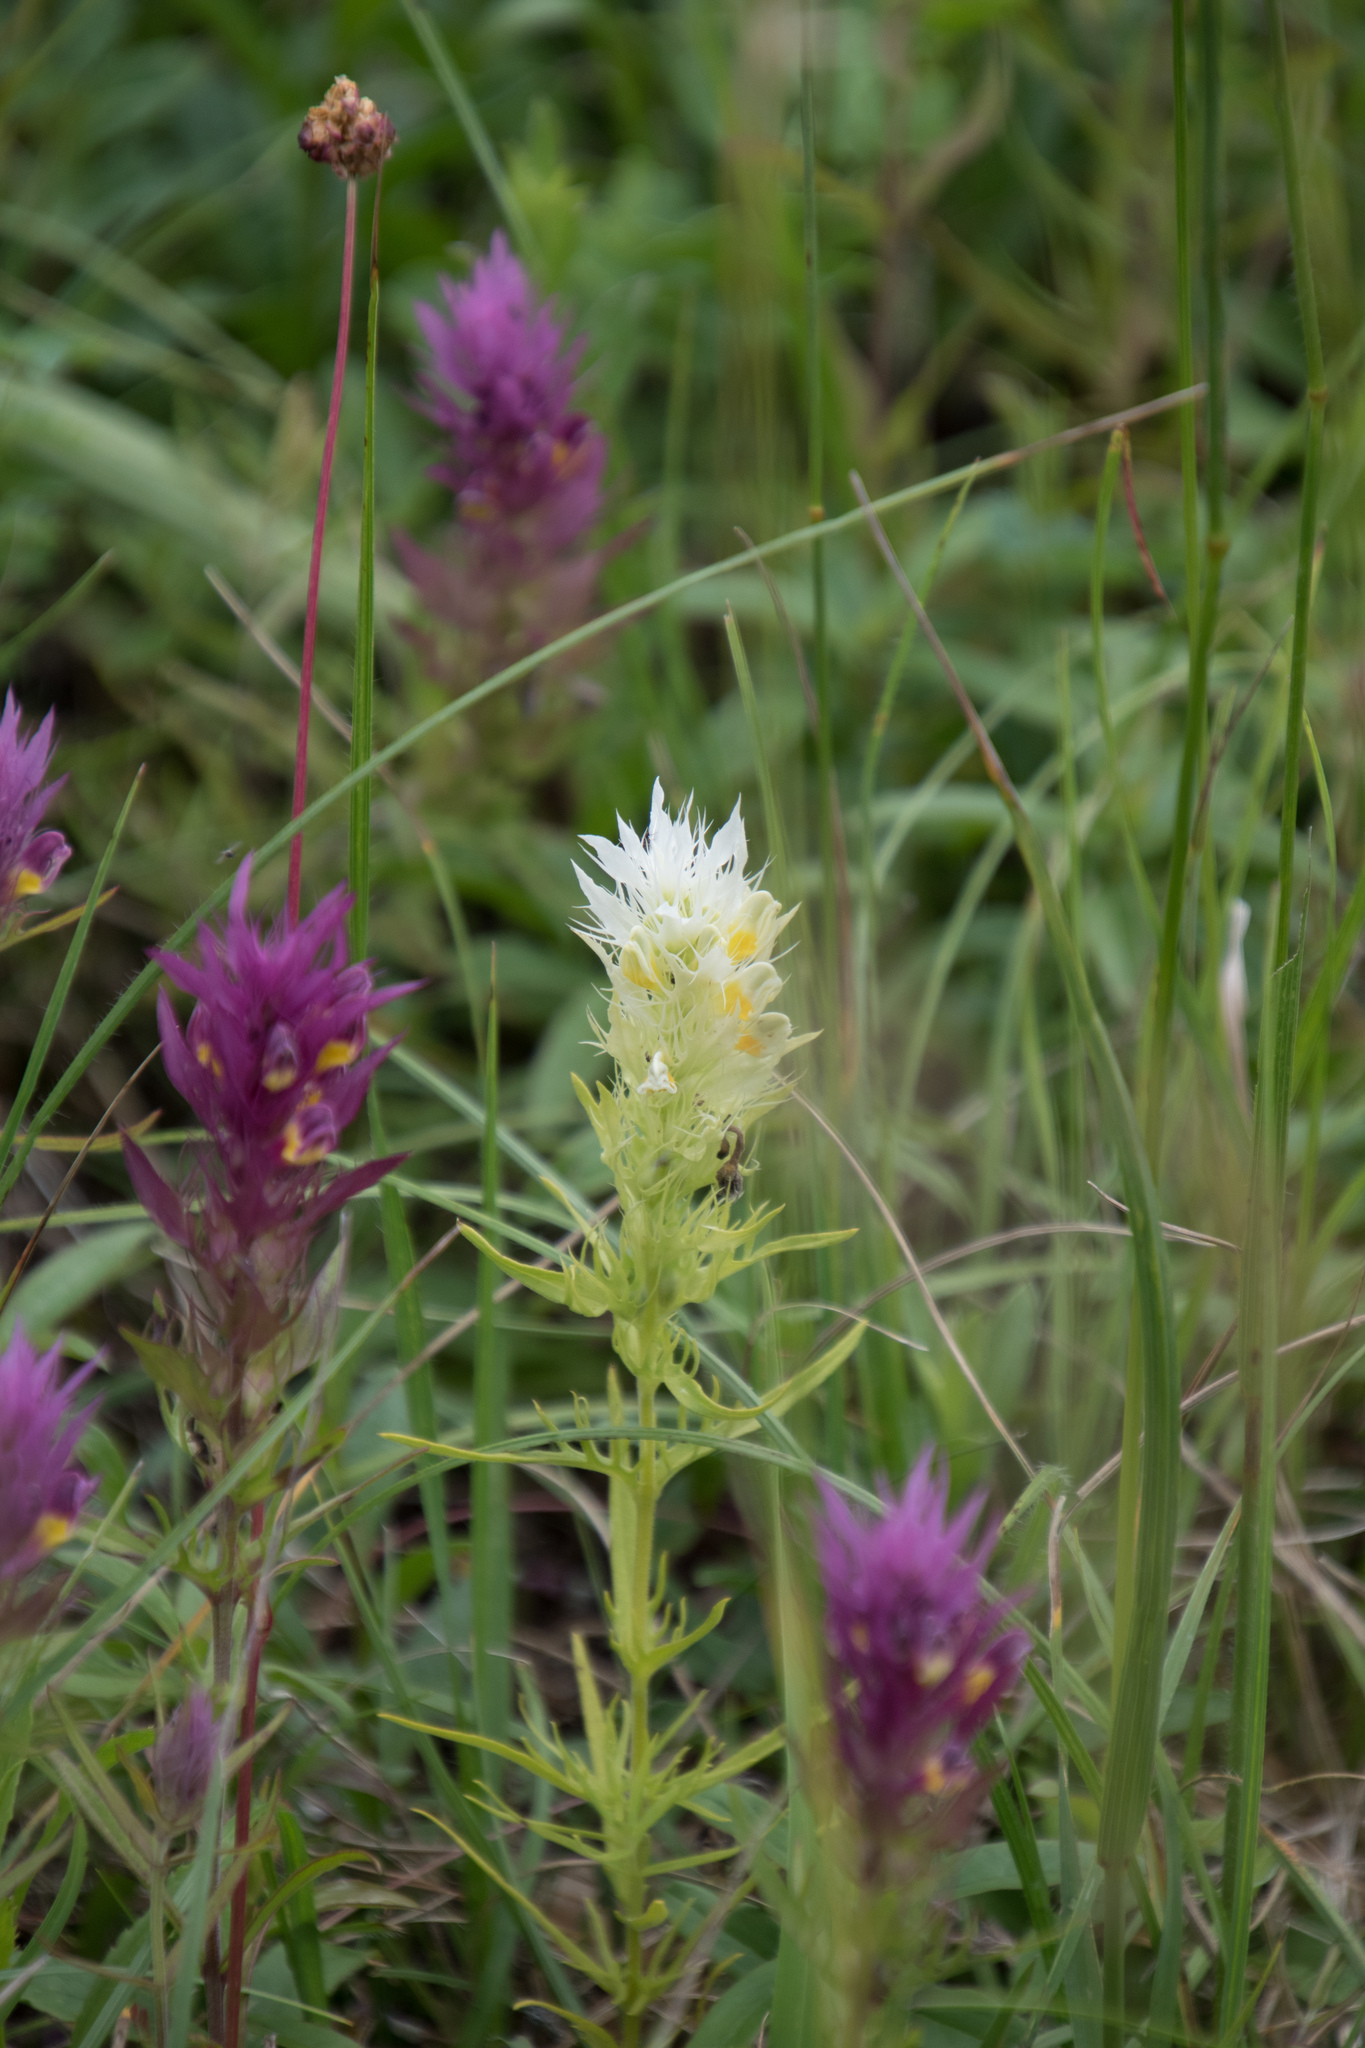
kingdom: Plantae
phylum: Tracheophyta
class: Magnoliopsida
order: Lamiales
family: Orobanchaceae
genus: Melampyrum
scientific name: Melampyrum arvense
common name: Field cow-wheat
